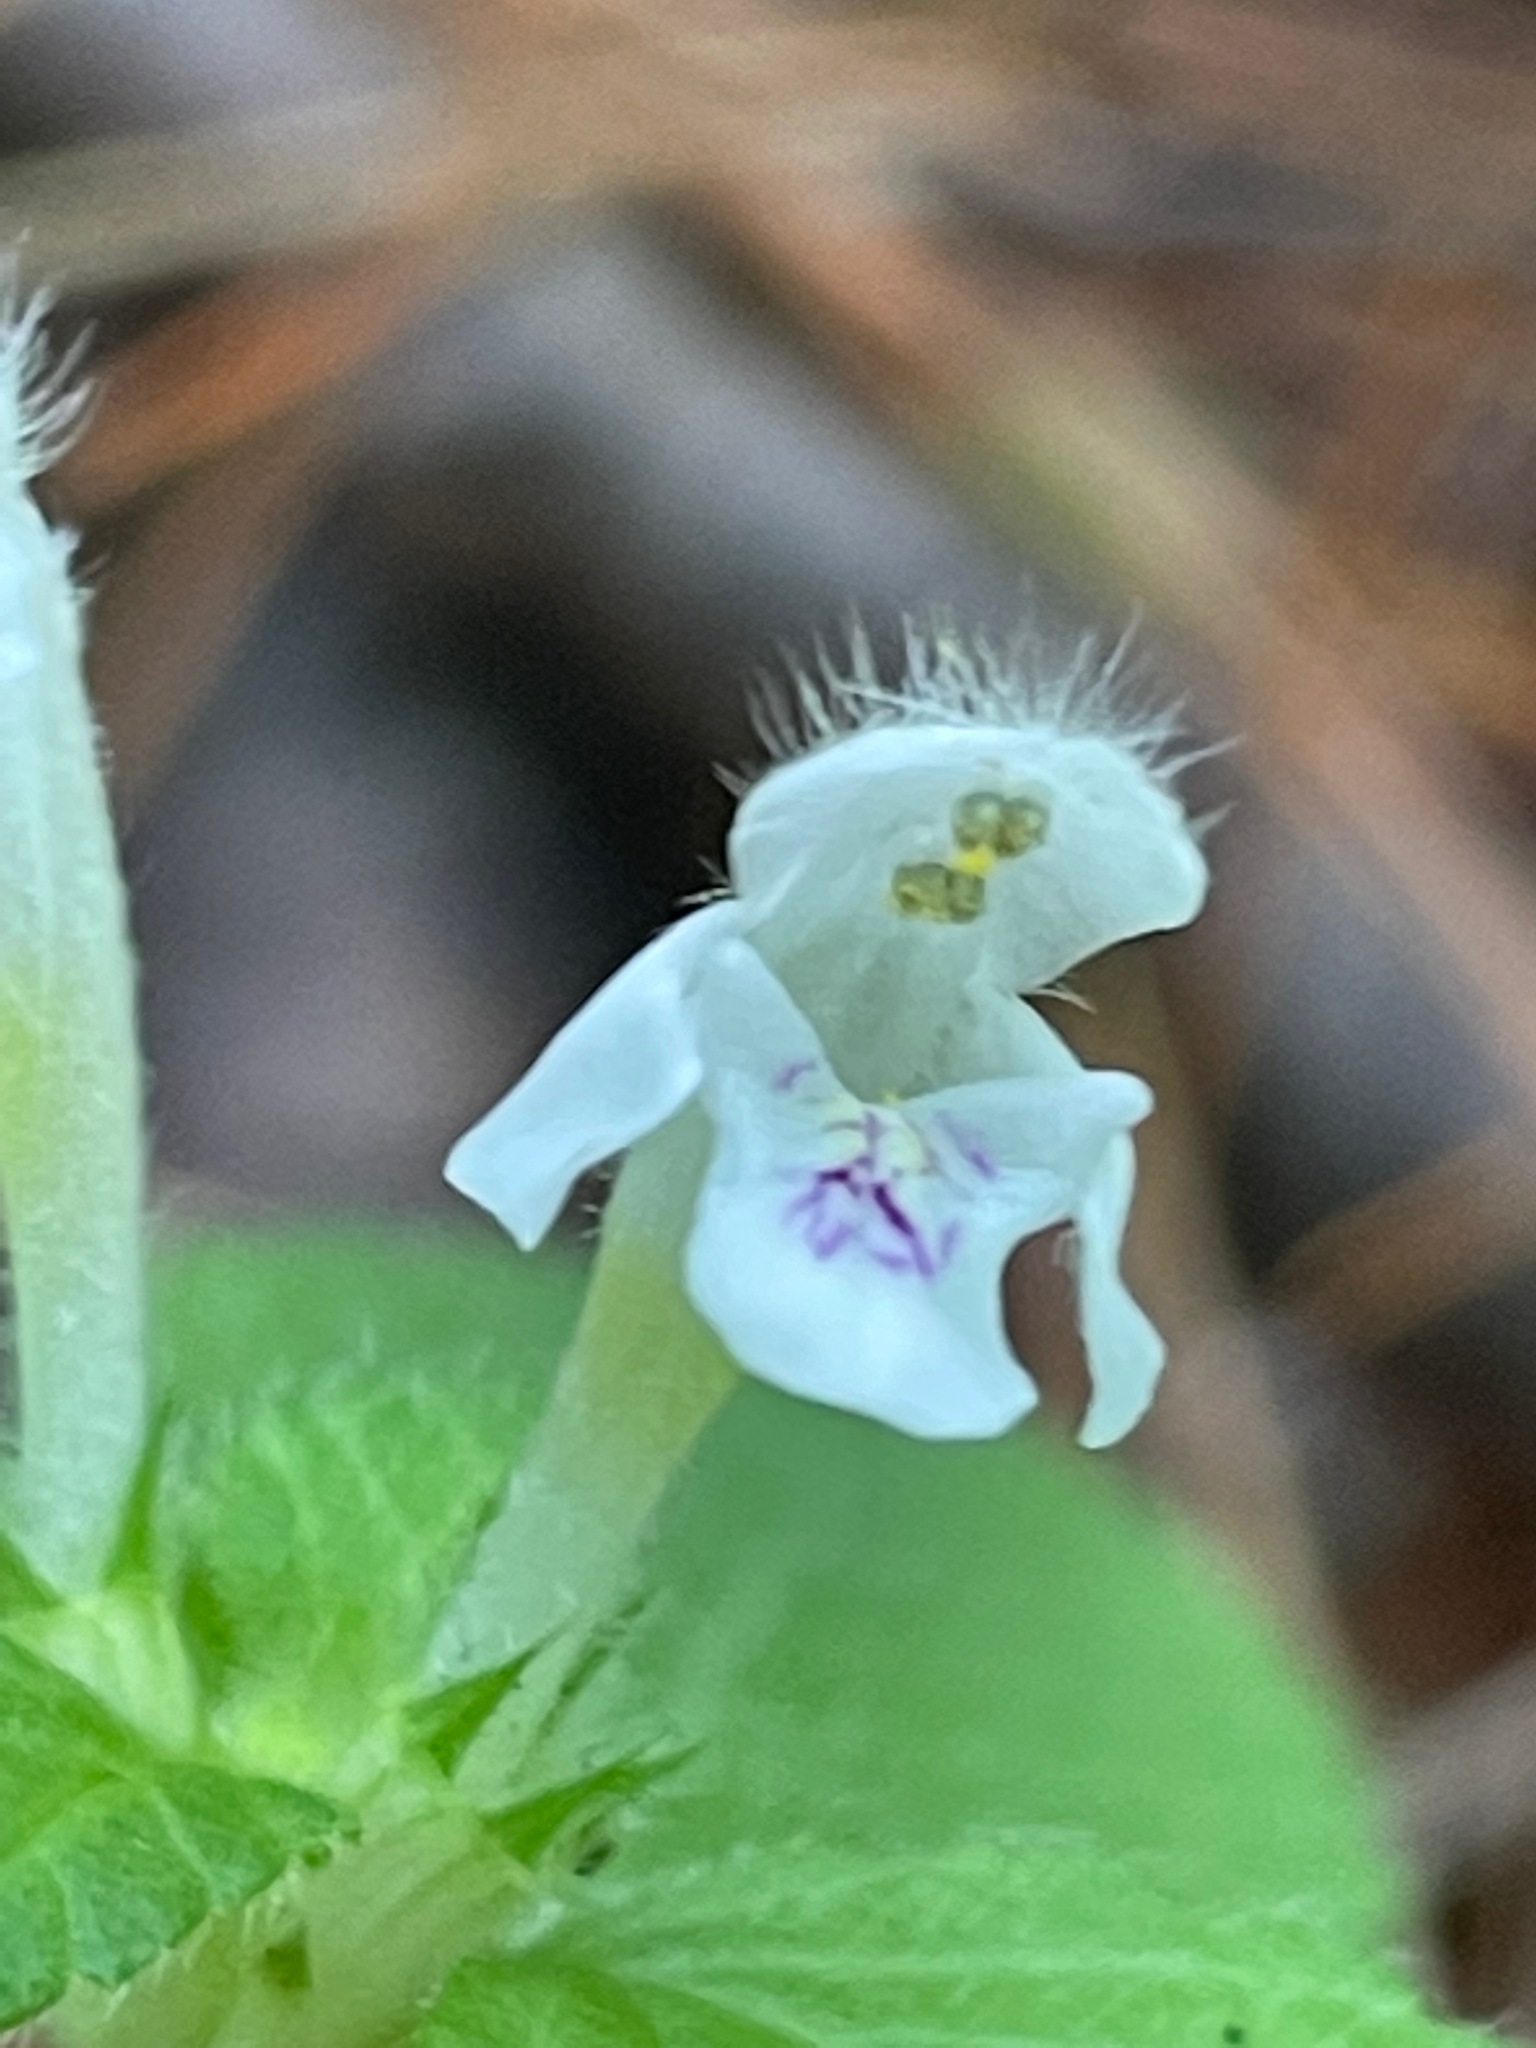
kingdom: Plantae
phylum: Tracheophyta
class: Magnoliopsida
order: Lamiales
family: Lamiaceae
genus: Galeopsis
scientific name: Galeopsis tetrahit
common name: Common hemp-nettle
